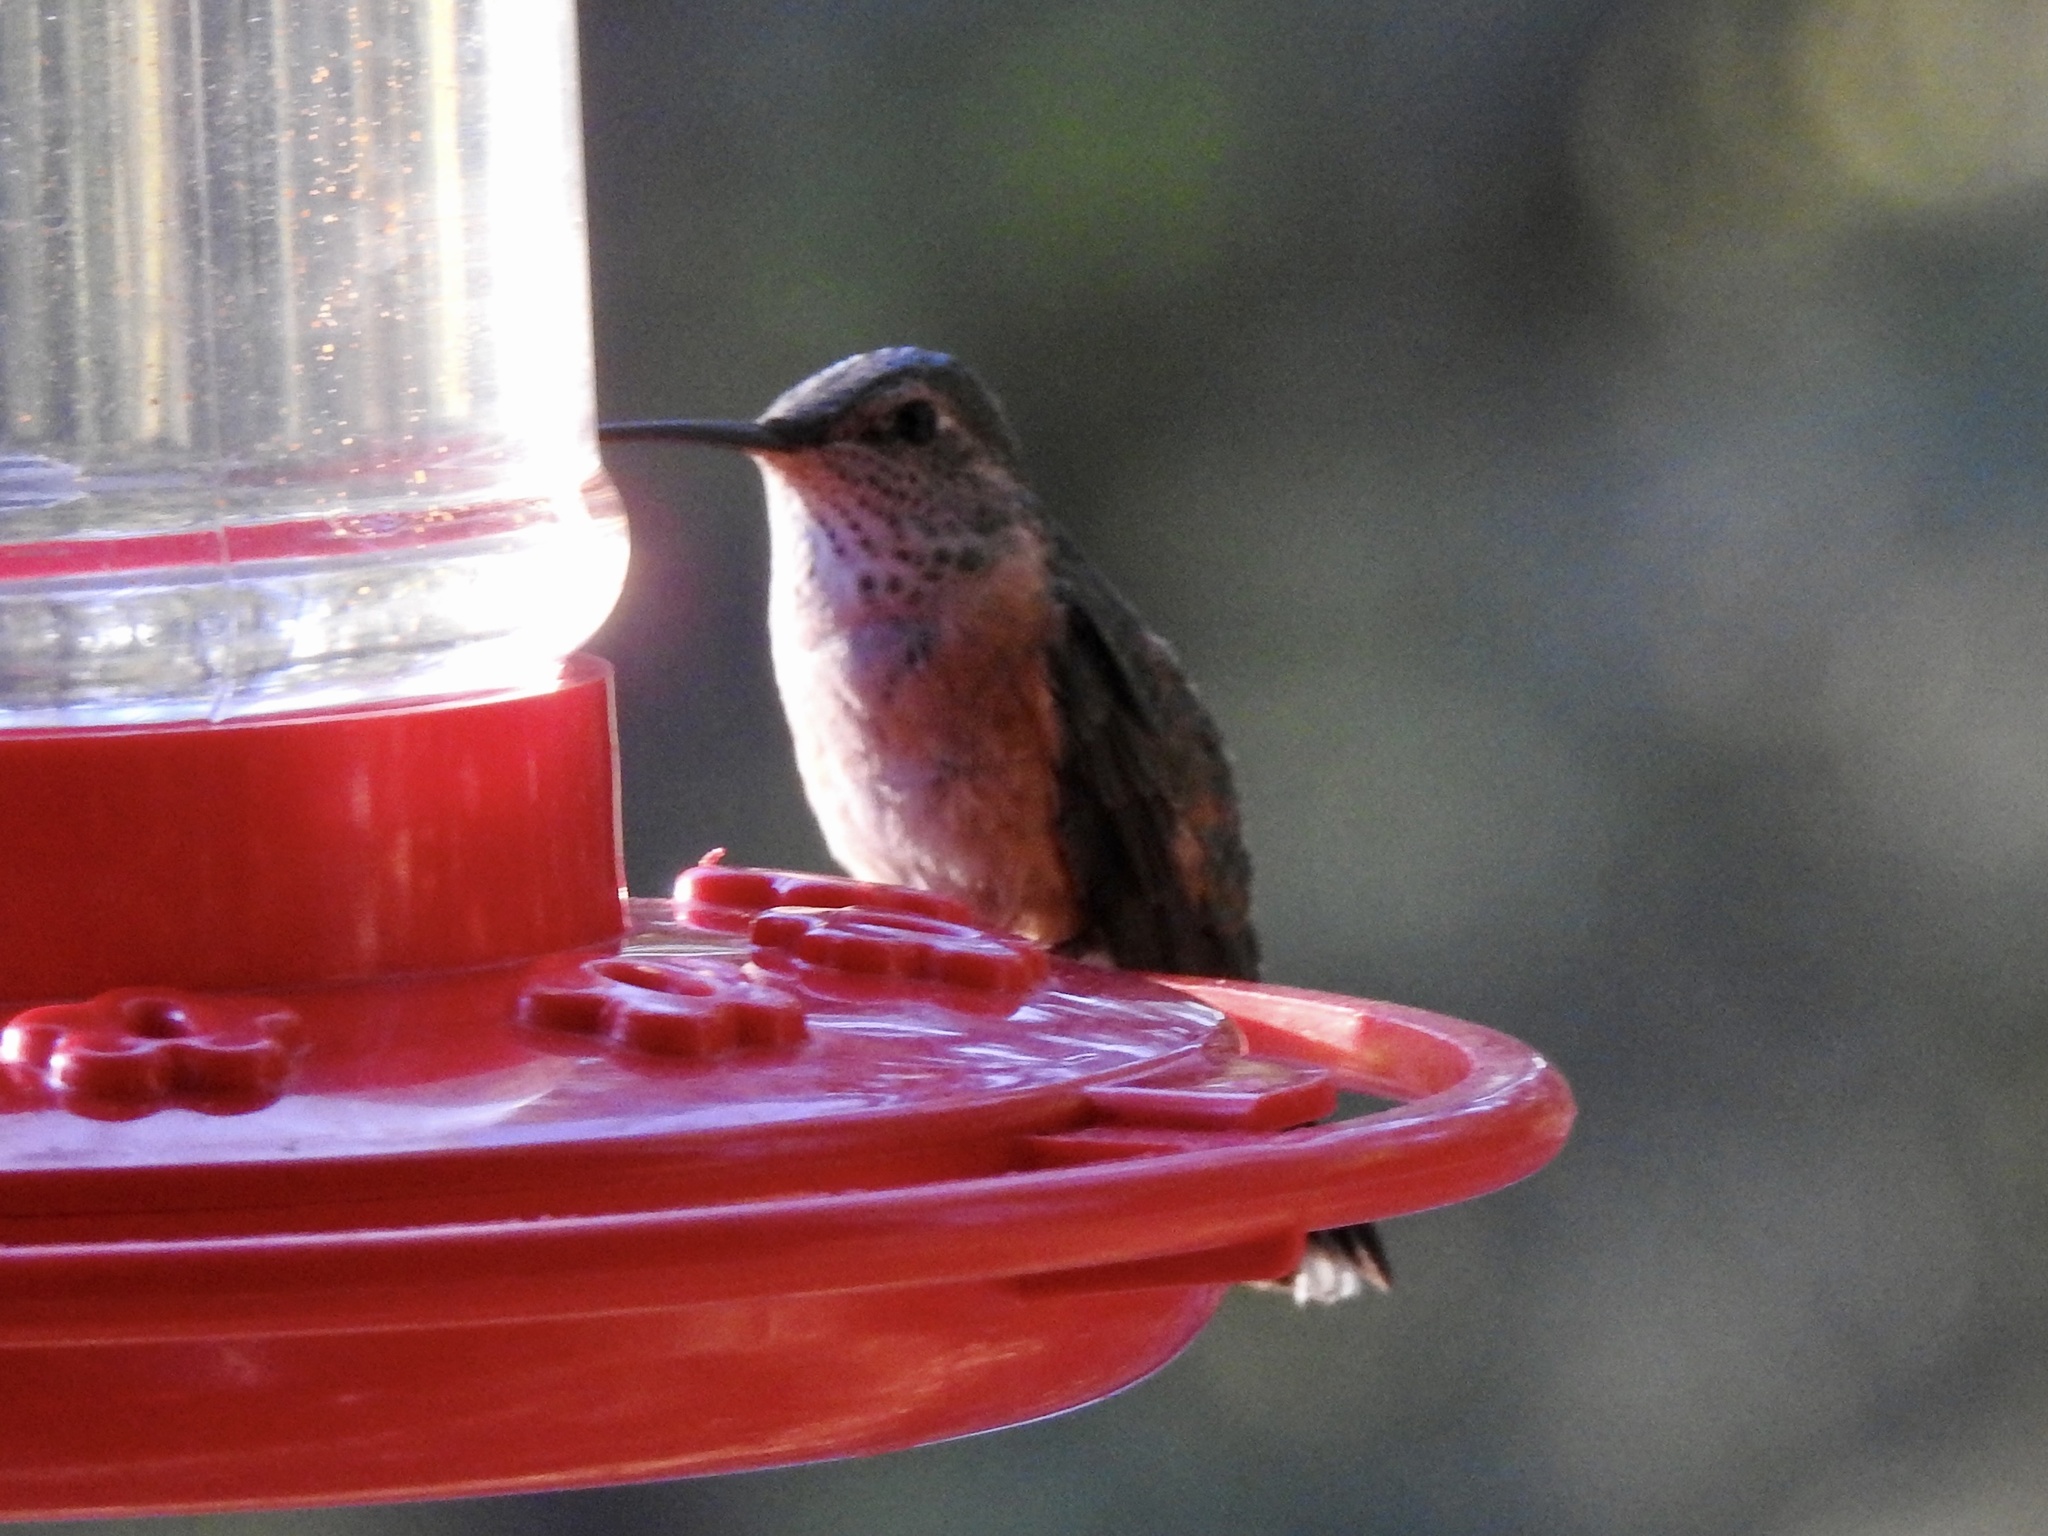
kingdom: Animalia
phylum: Chordata
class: Aves
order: Apodiformes
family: Trochilidae
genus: Selasphorus
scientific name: Selasphorus platycercus
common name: Broad-tailed hummingbird
